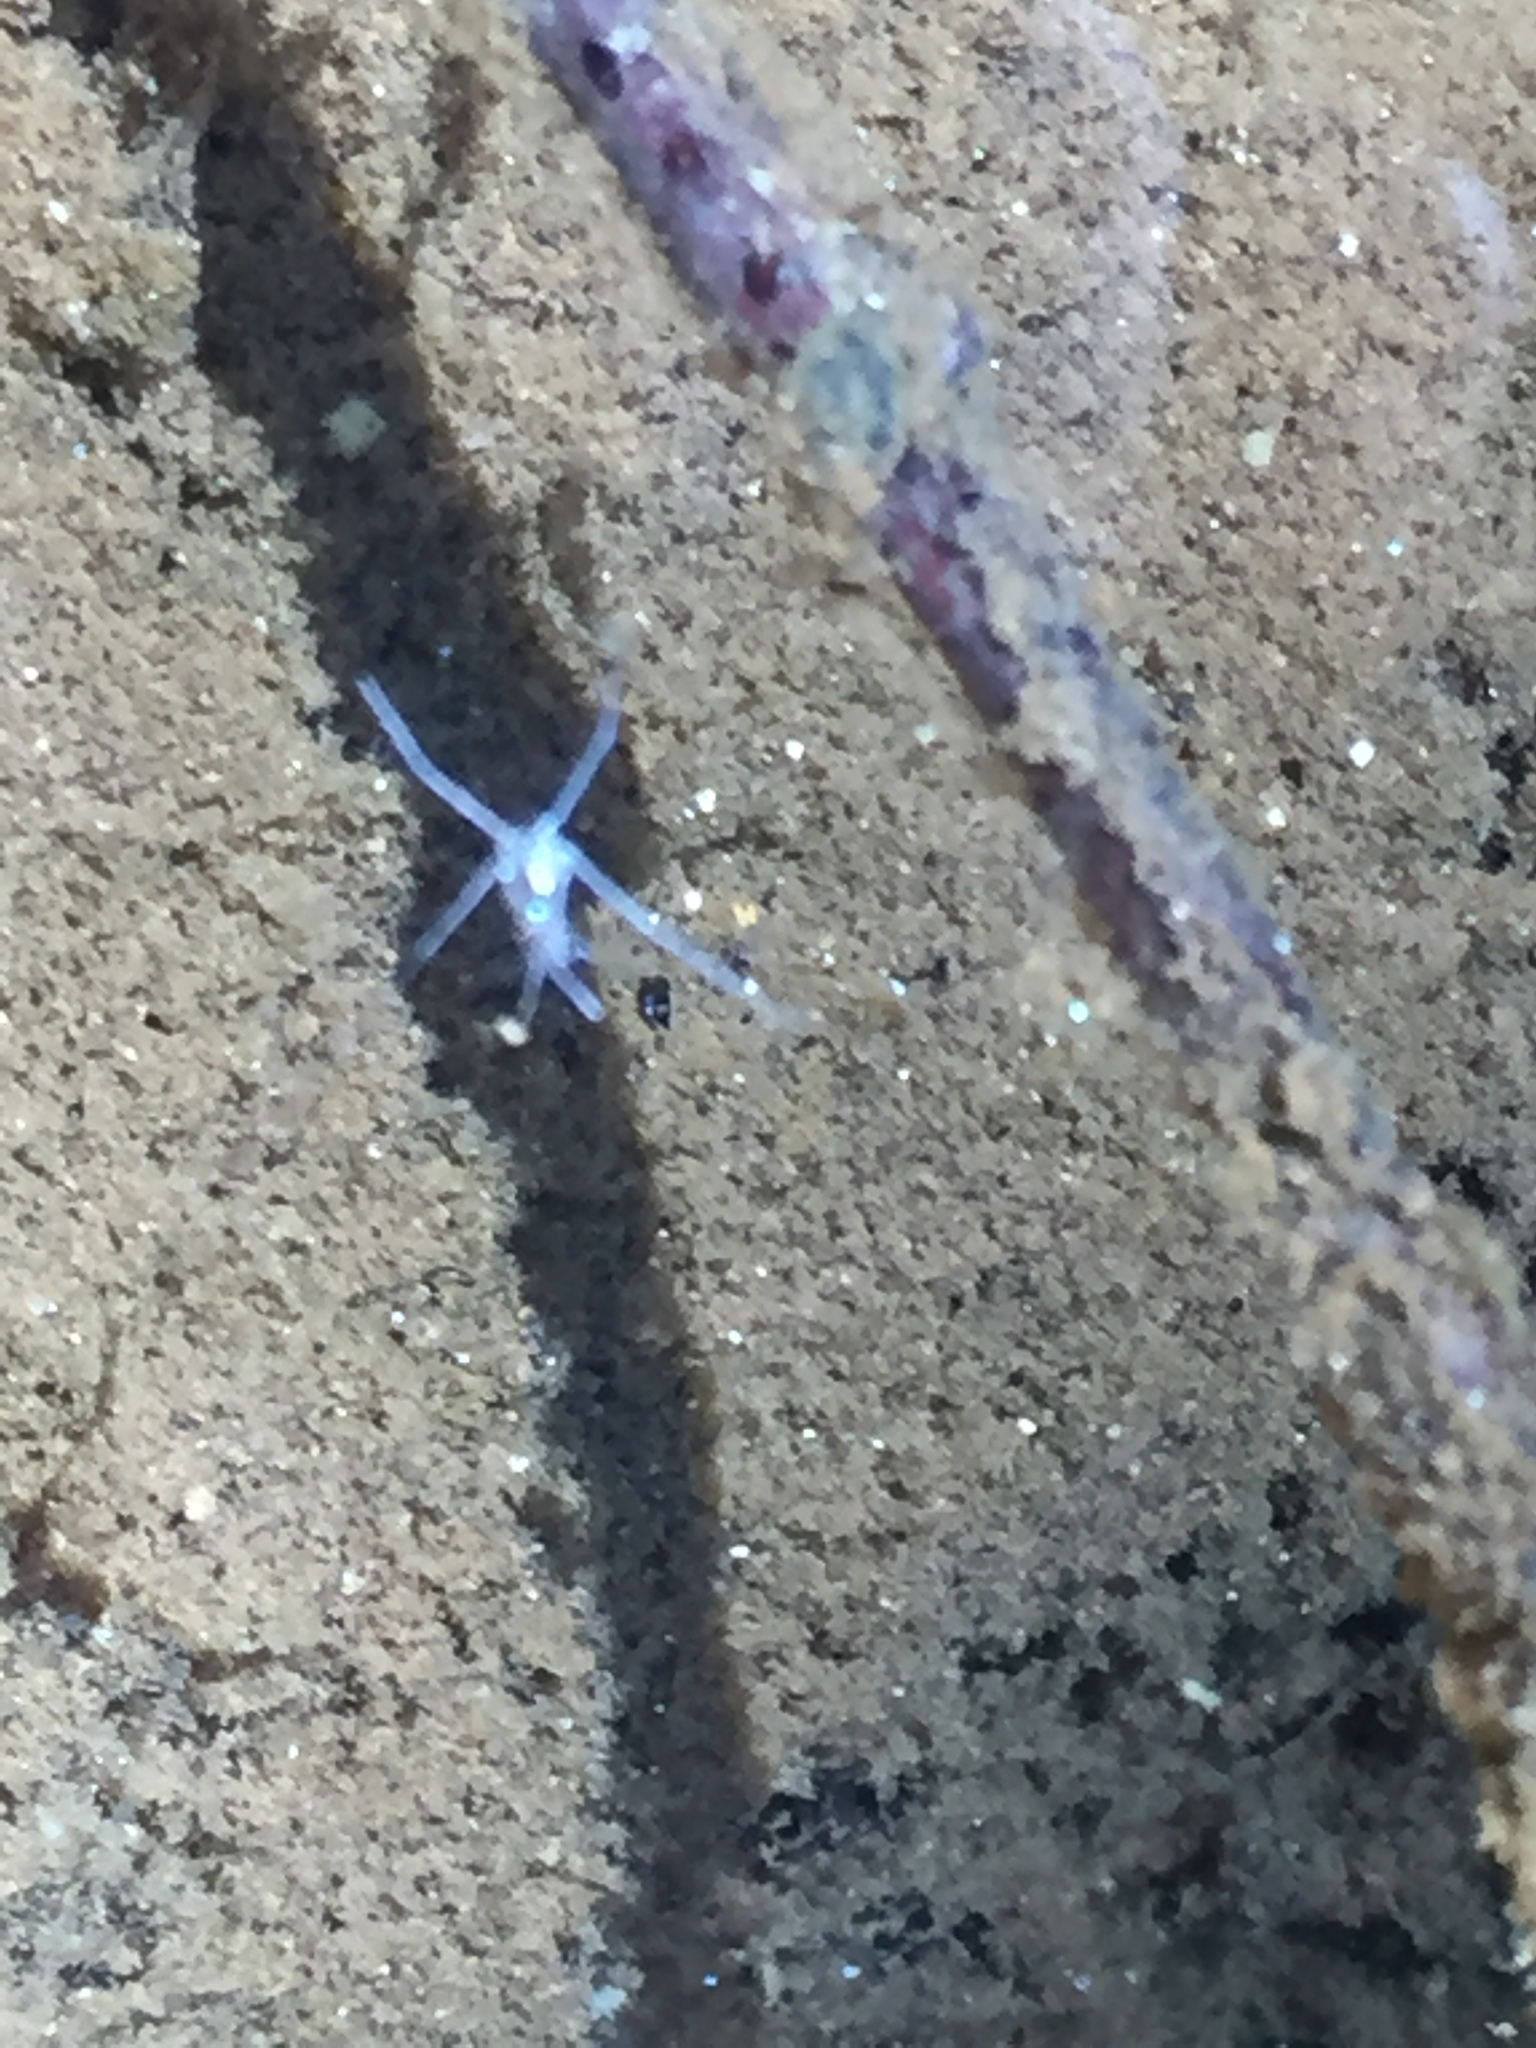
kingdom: Animalia
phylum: Arthropoda
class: Insecta
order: Hemiptera
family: Gerridae
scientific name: Gerridae
